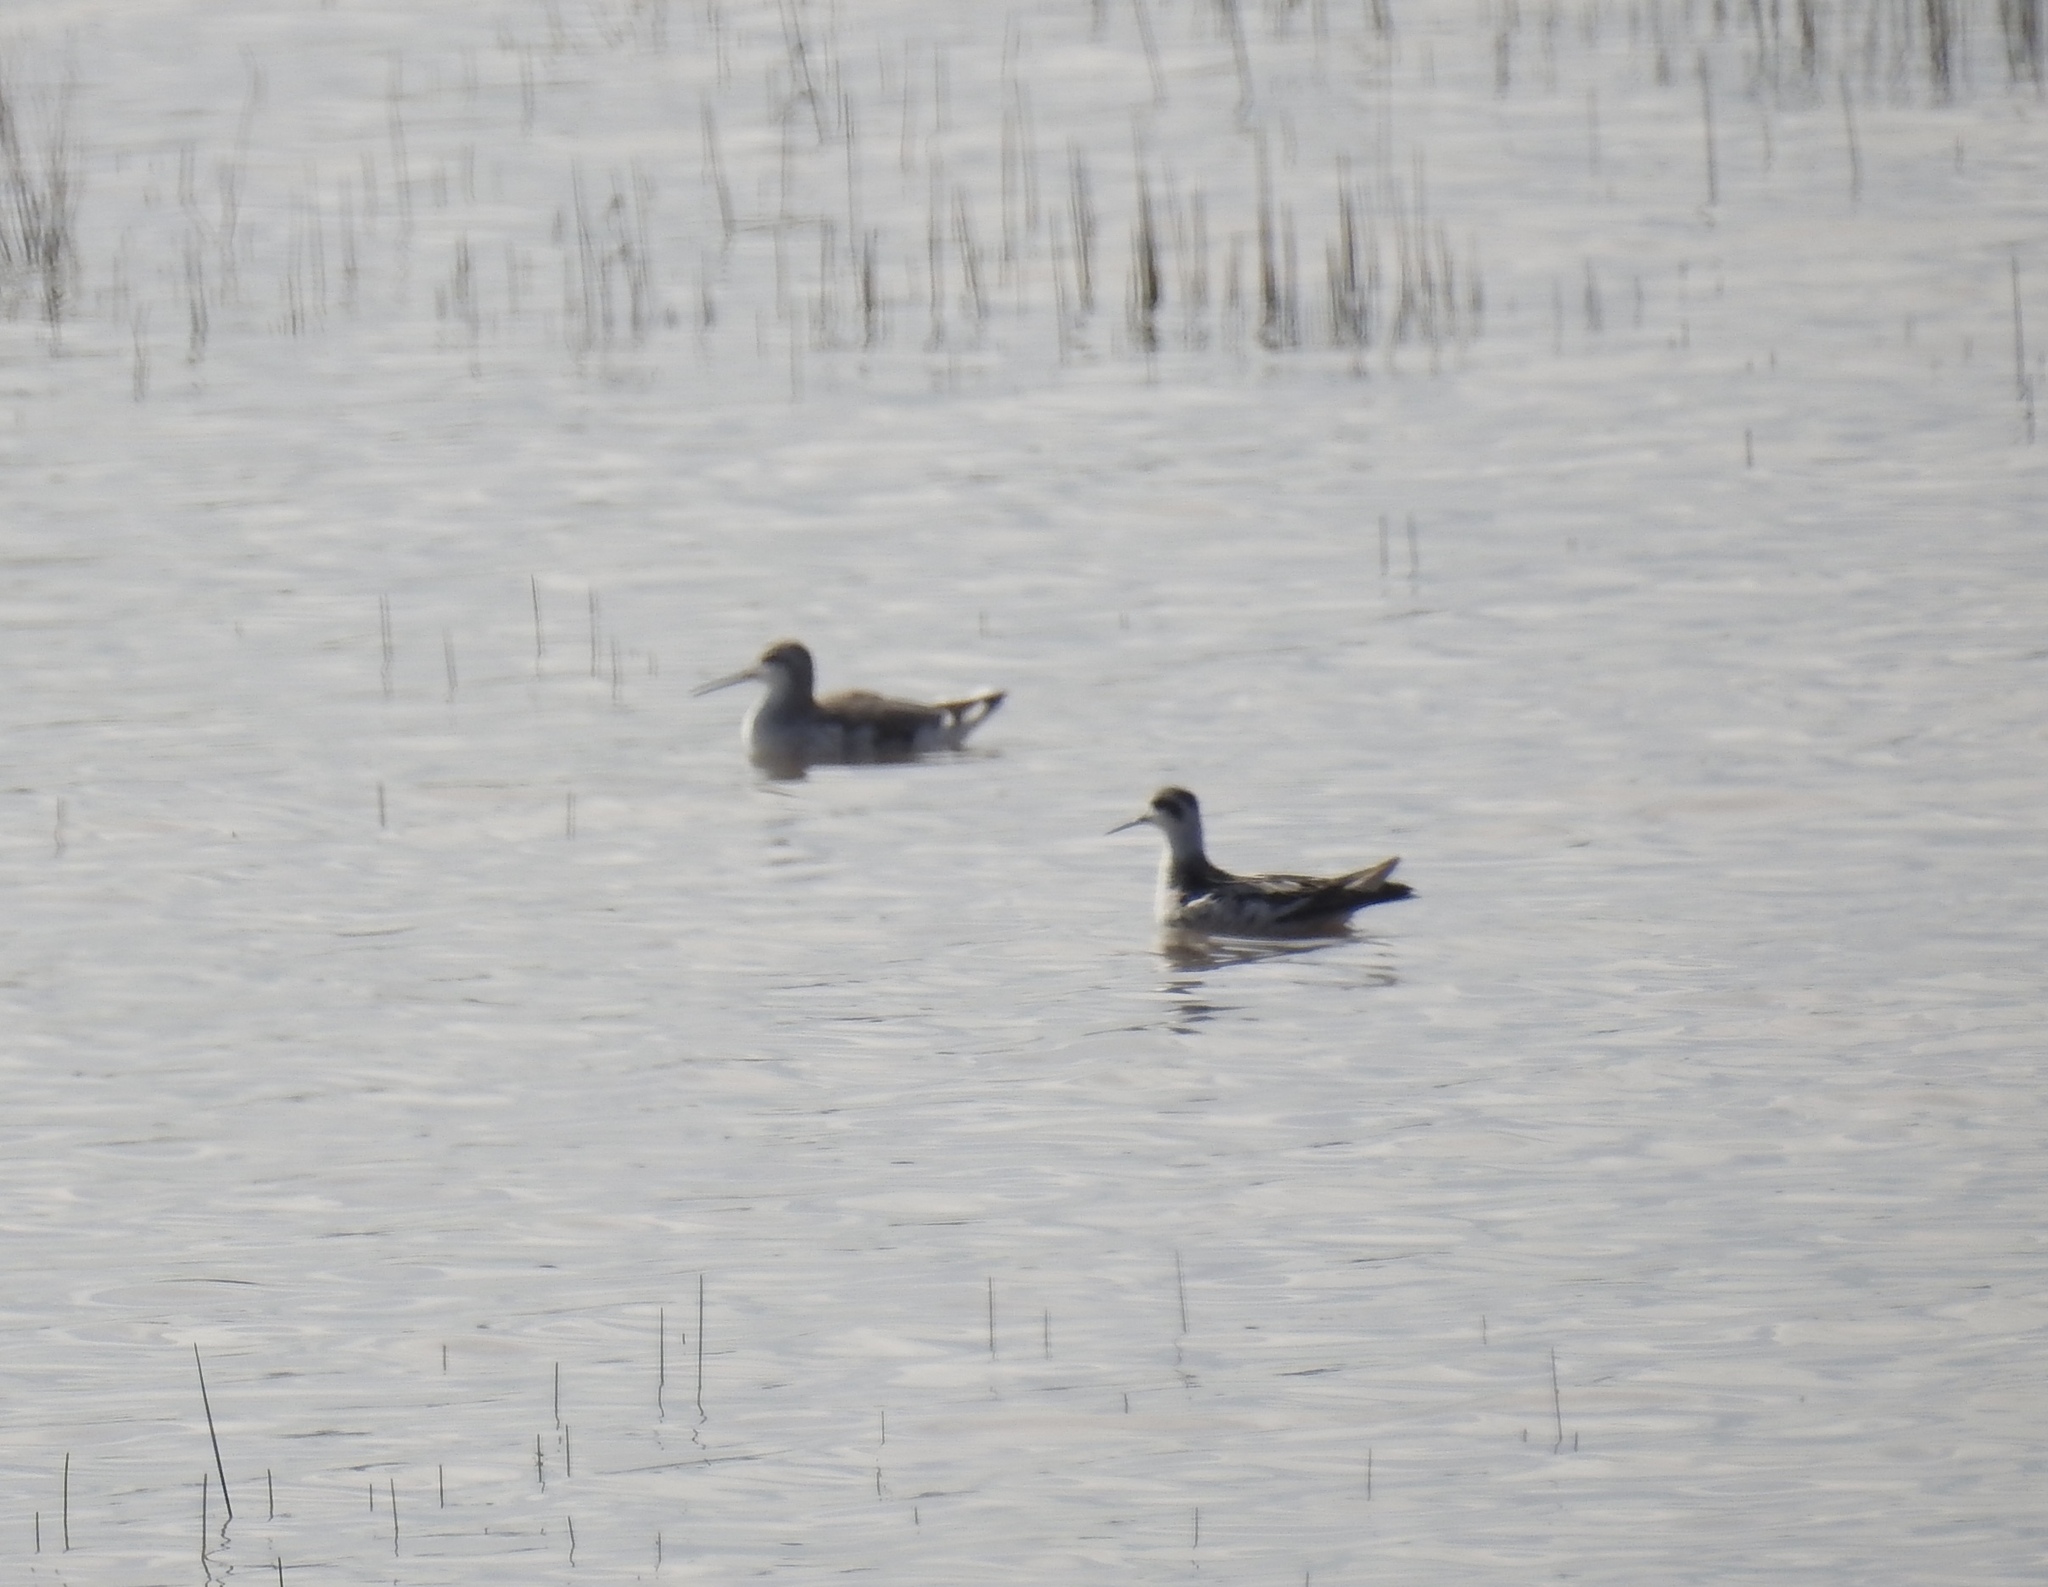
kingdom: Animalia
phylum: Chordata
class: Aves
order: Charadriiformes
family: Scolopacidae
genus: Phalaropus
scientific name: Phalaropus tricolor
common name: Wilson's phalarope
